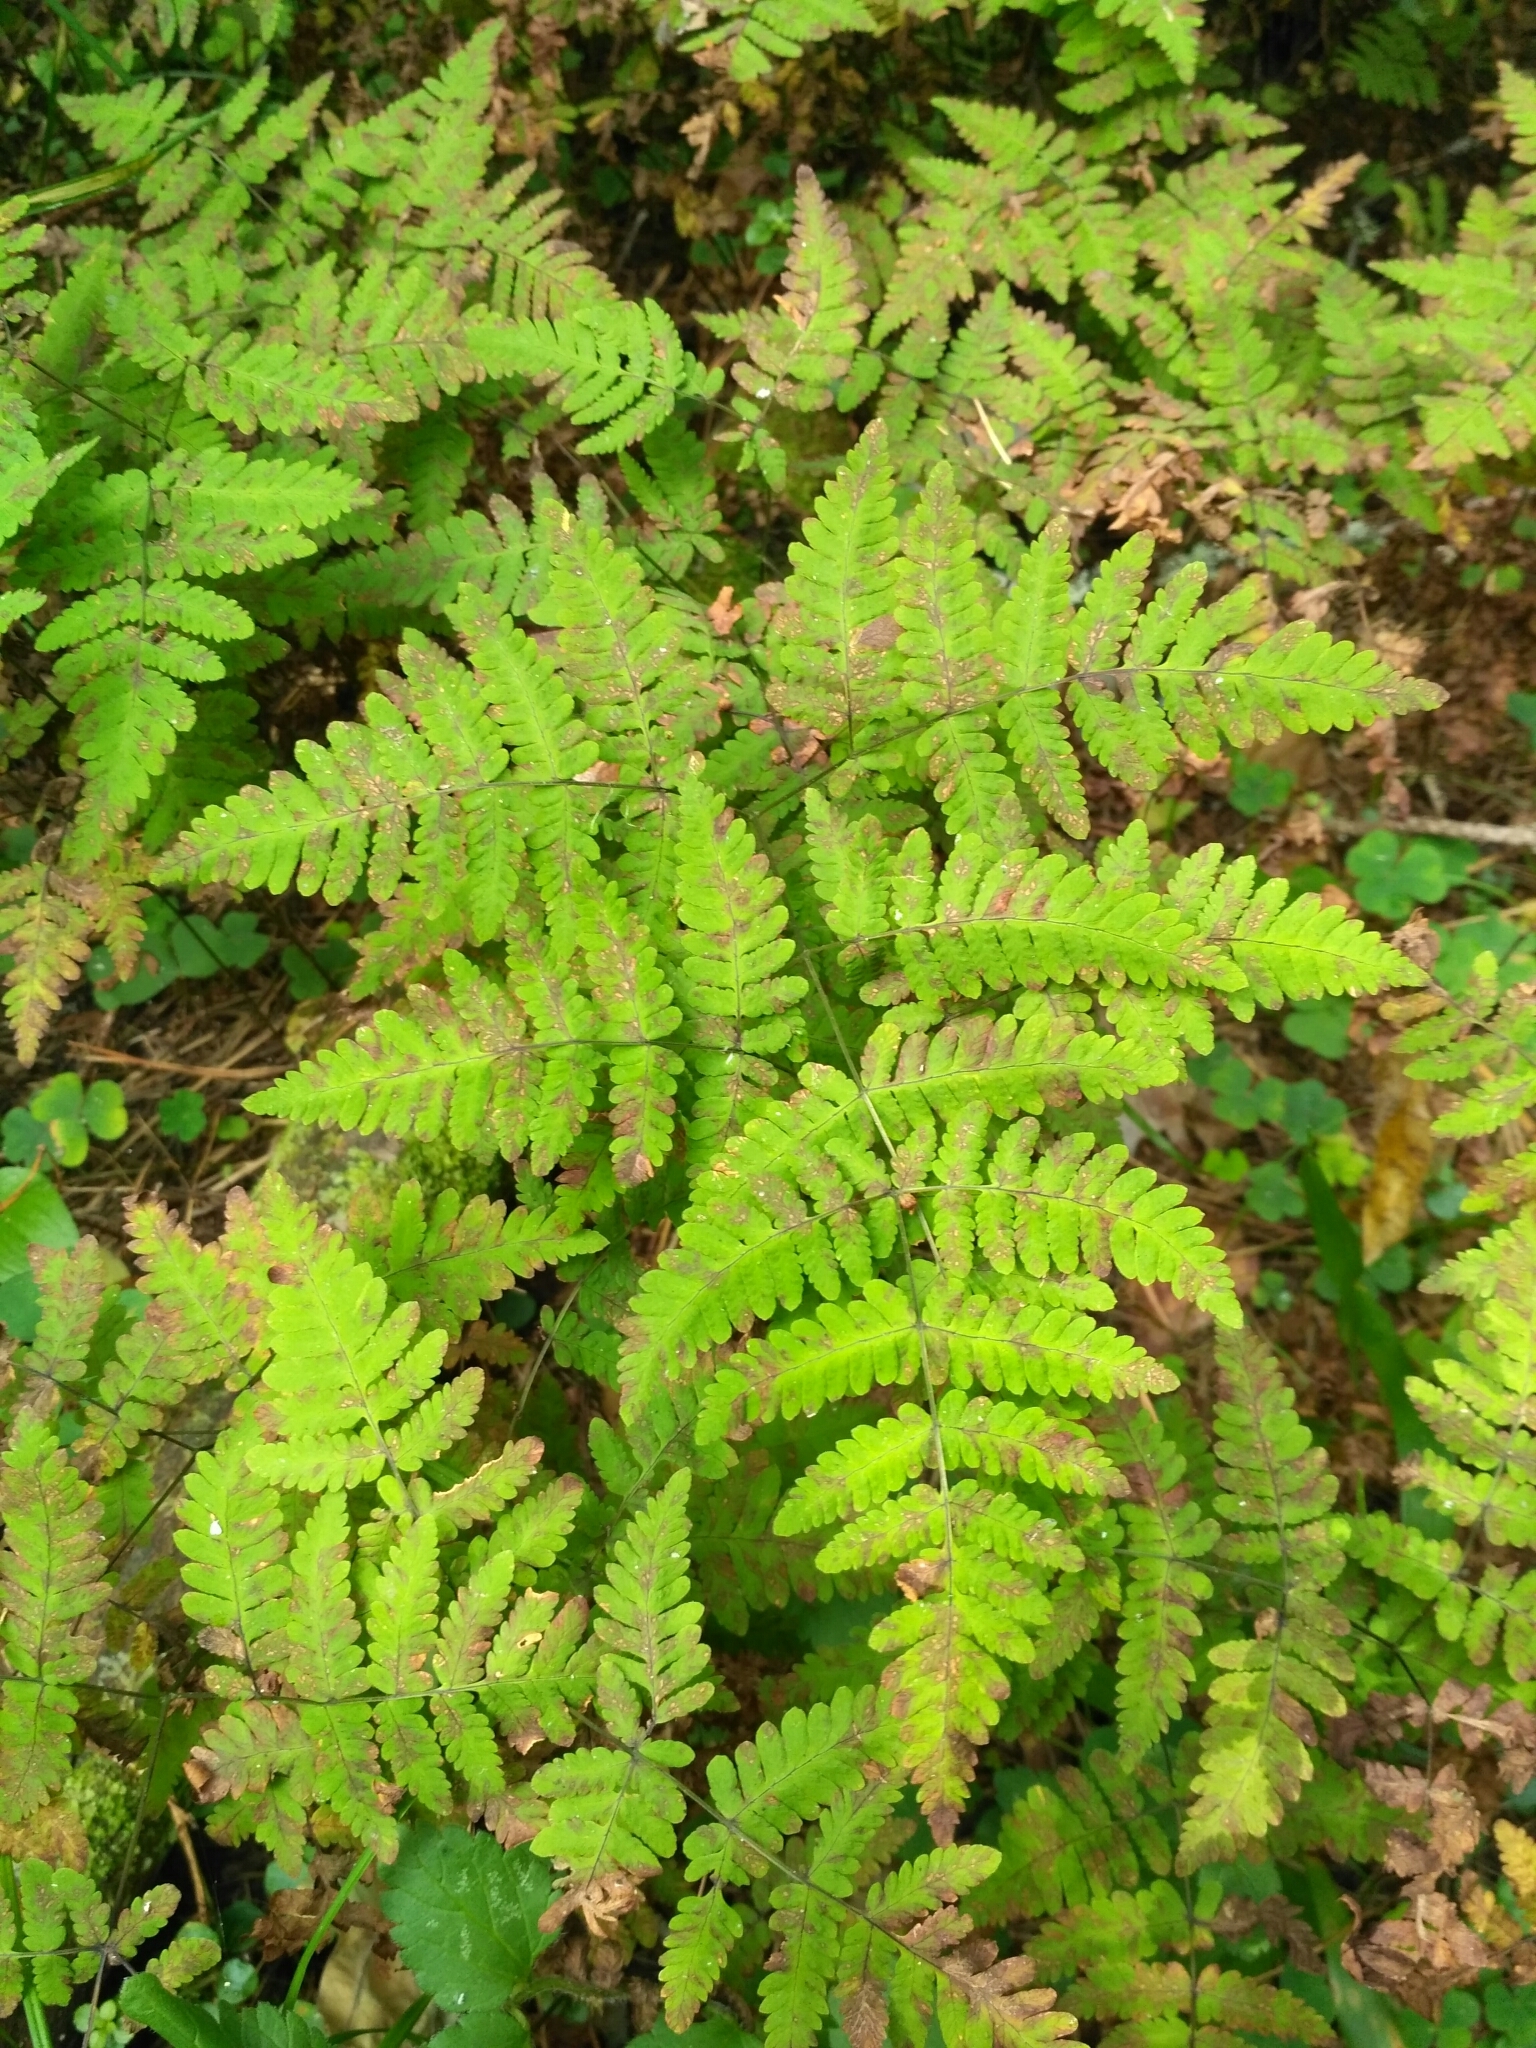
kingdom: Plantae
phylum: Tracheophyta
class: Polypodiopsida
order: Polypodiales
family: Cystopteridaceae
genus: Gymnocarpium
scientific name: Gymnocarpium dryopteris
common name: Oak fern
